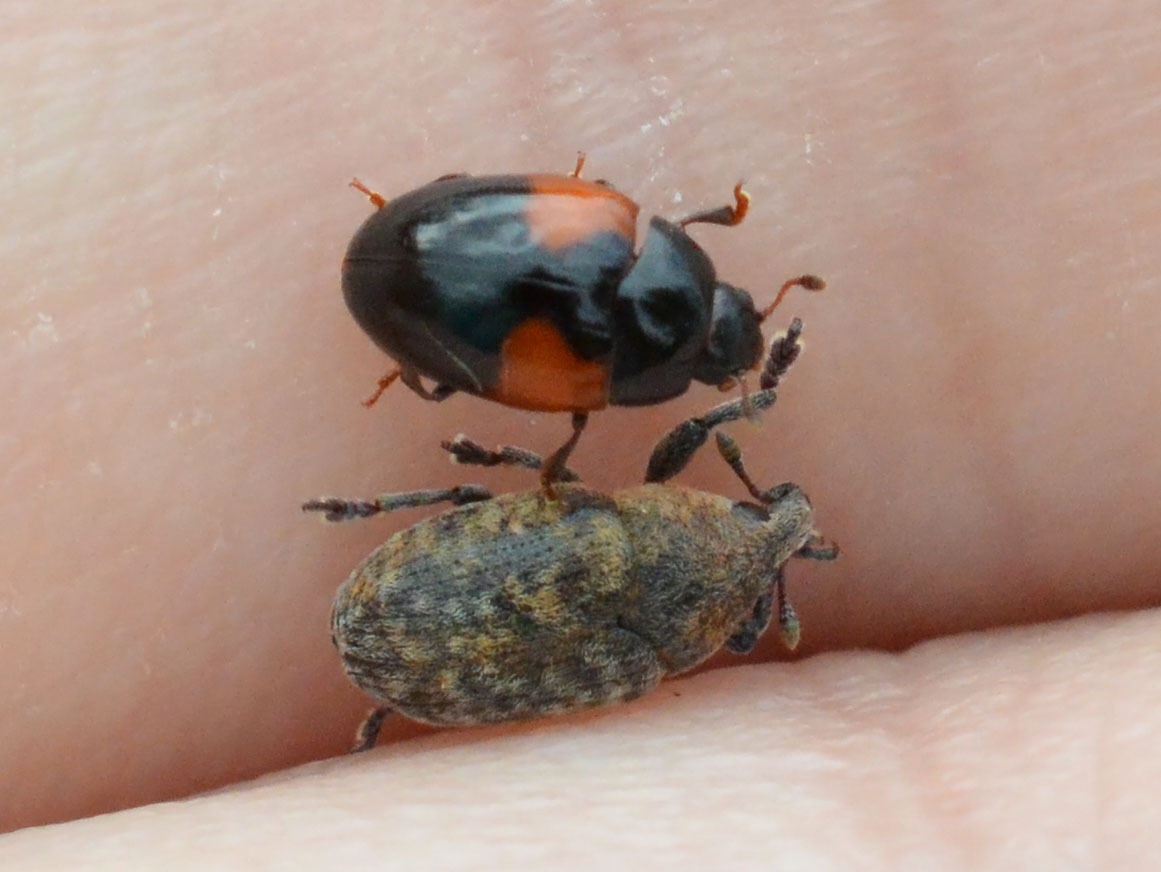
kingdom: Animalia
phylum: Arthropoda
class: Insecta
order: Coleoptera
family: Erotylidae
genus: Tritoma
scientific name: Tritoma bipustulata
